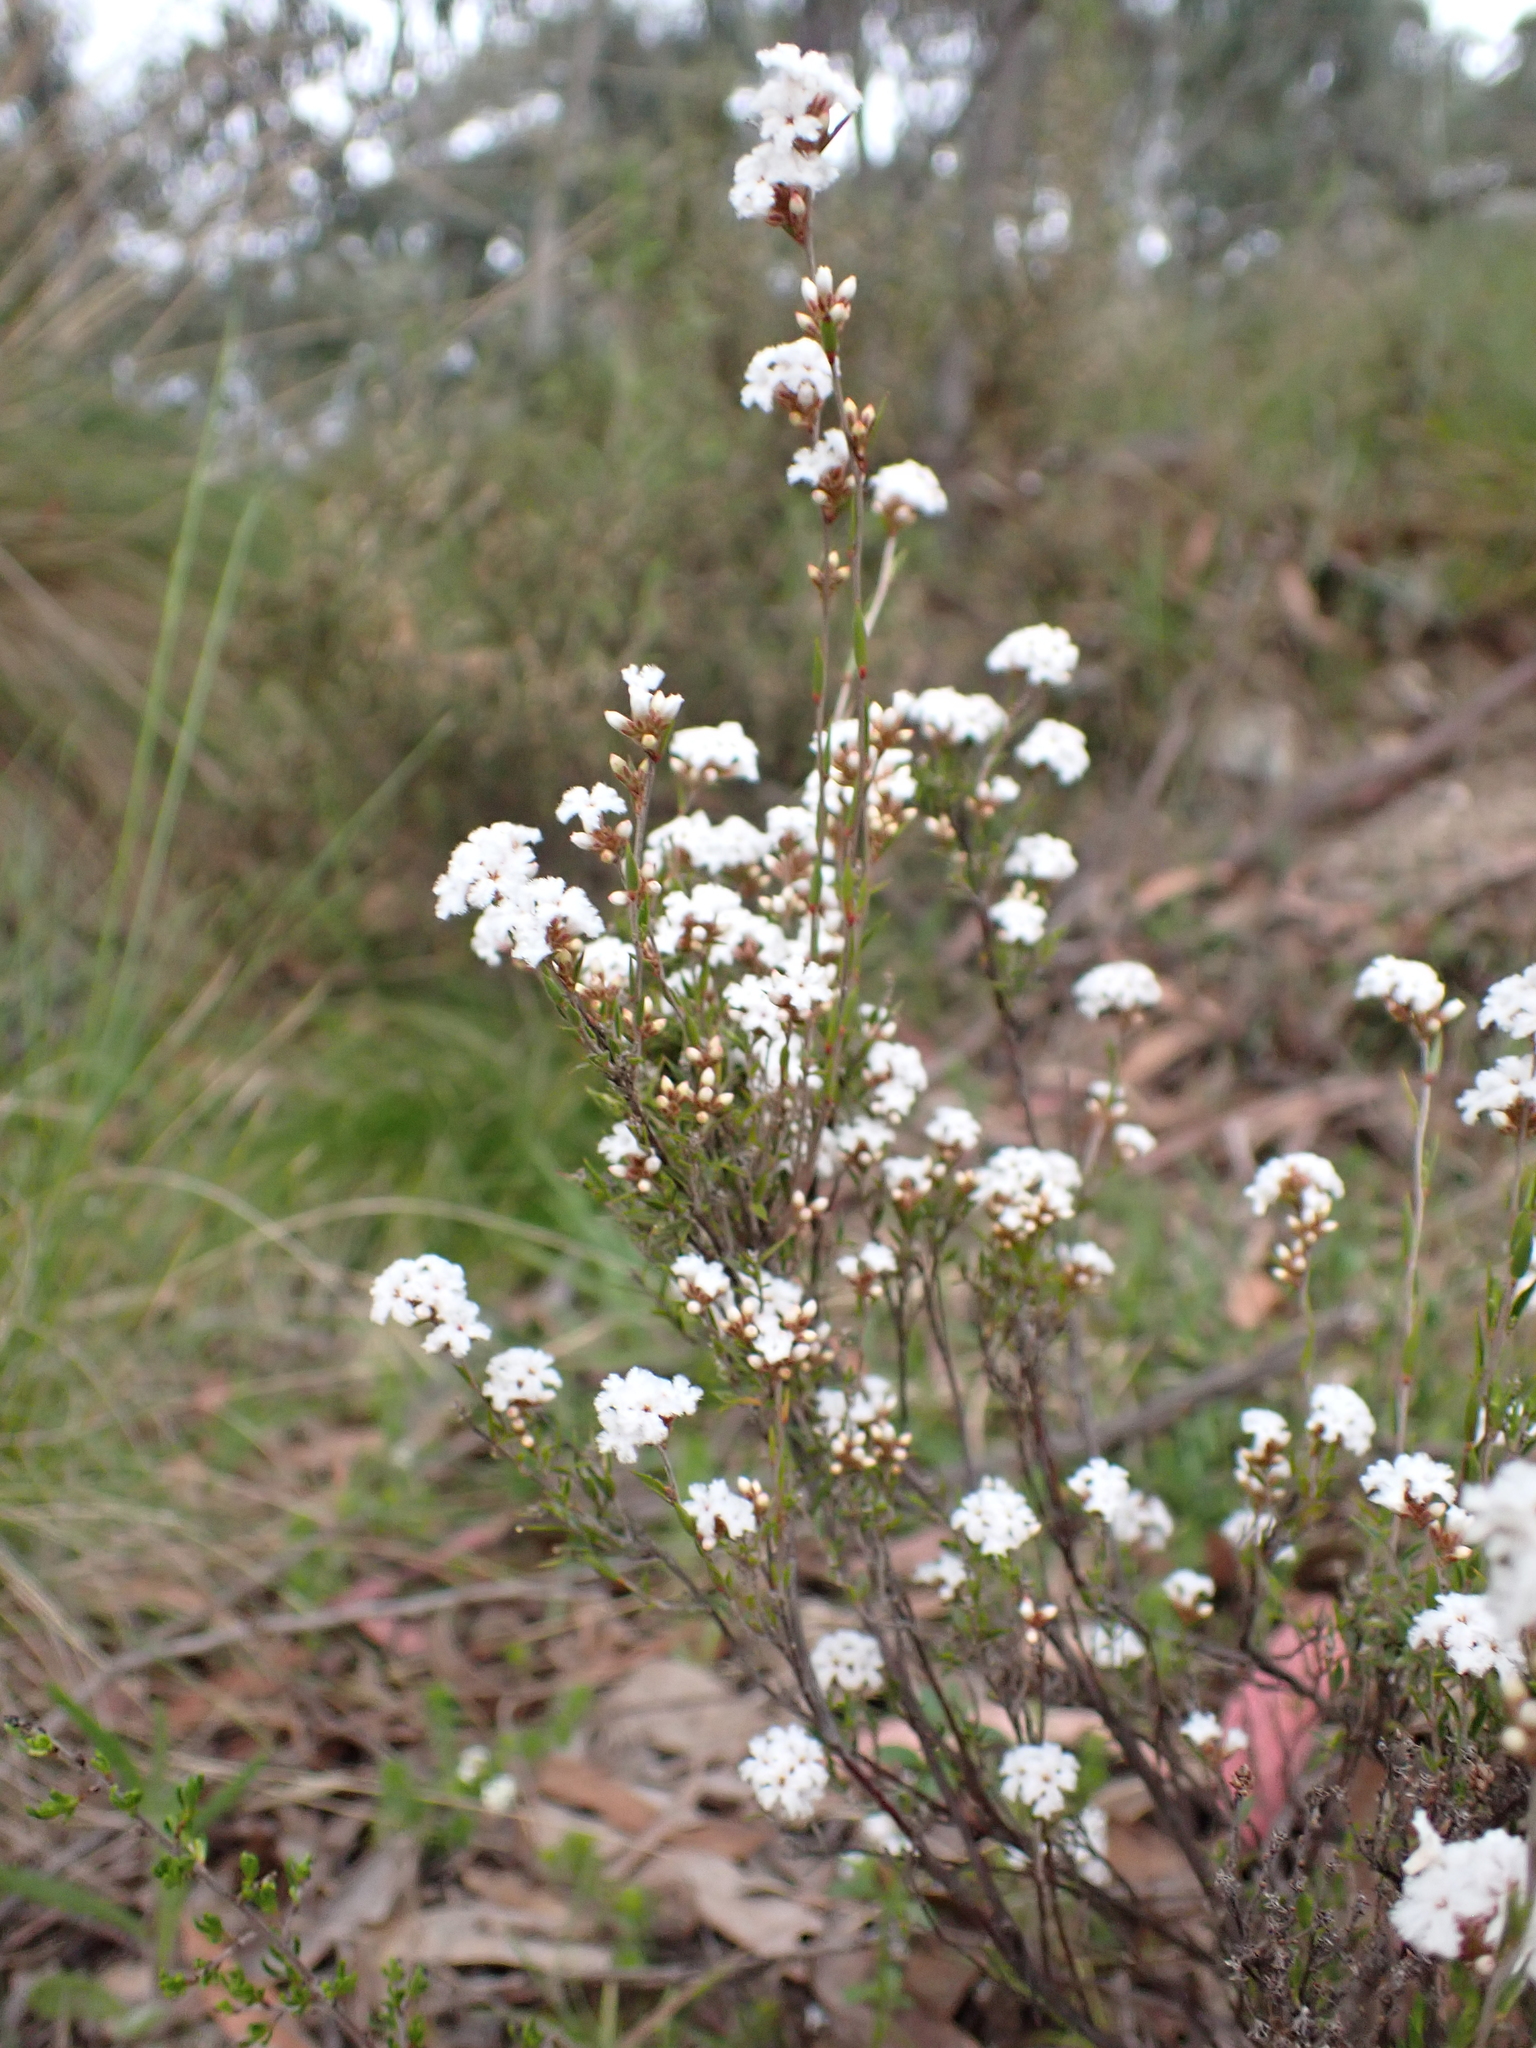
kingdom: Plantae
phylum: Tracheophyta
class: Magnoliopsida
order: Ericales
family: Ericaceae
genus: Leucopogon
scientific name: Leucopogon virgatus
